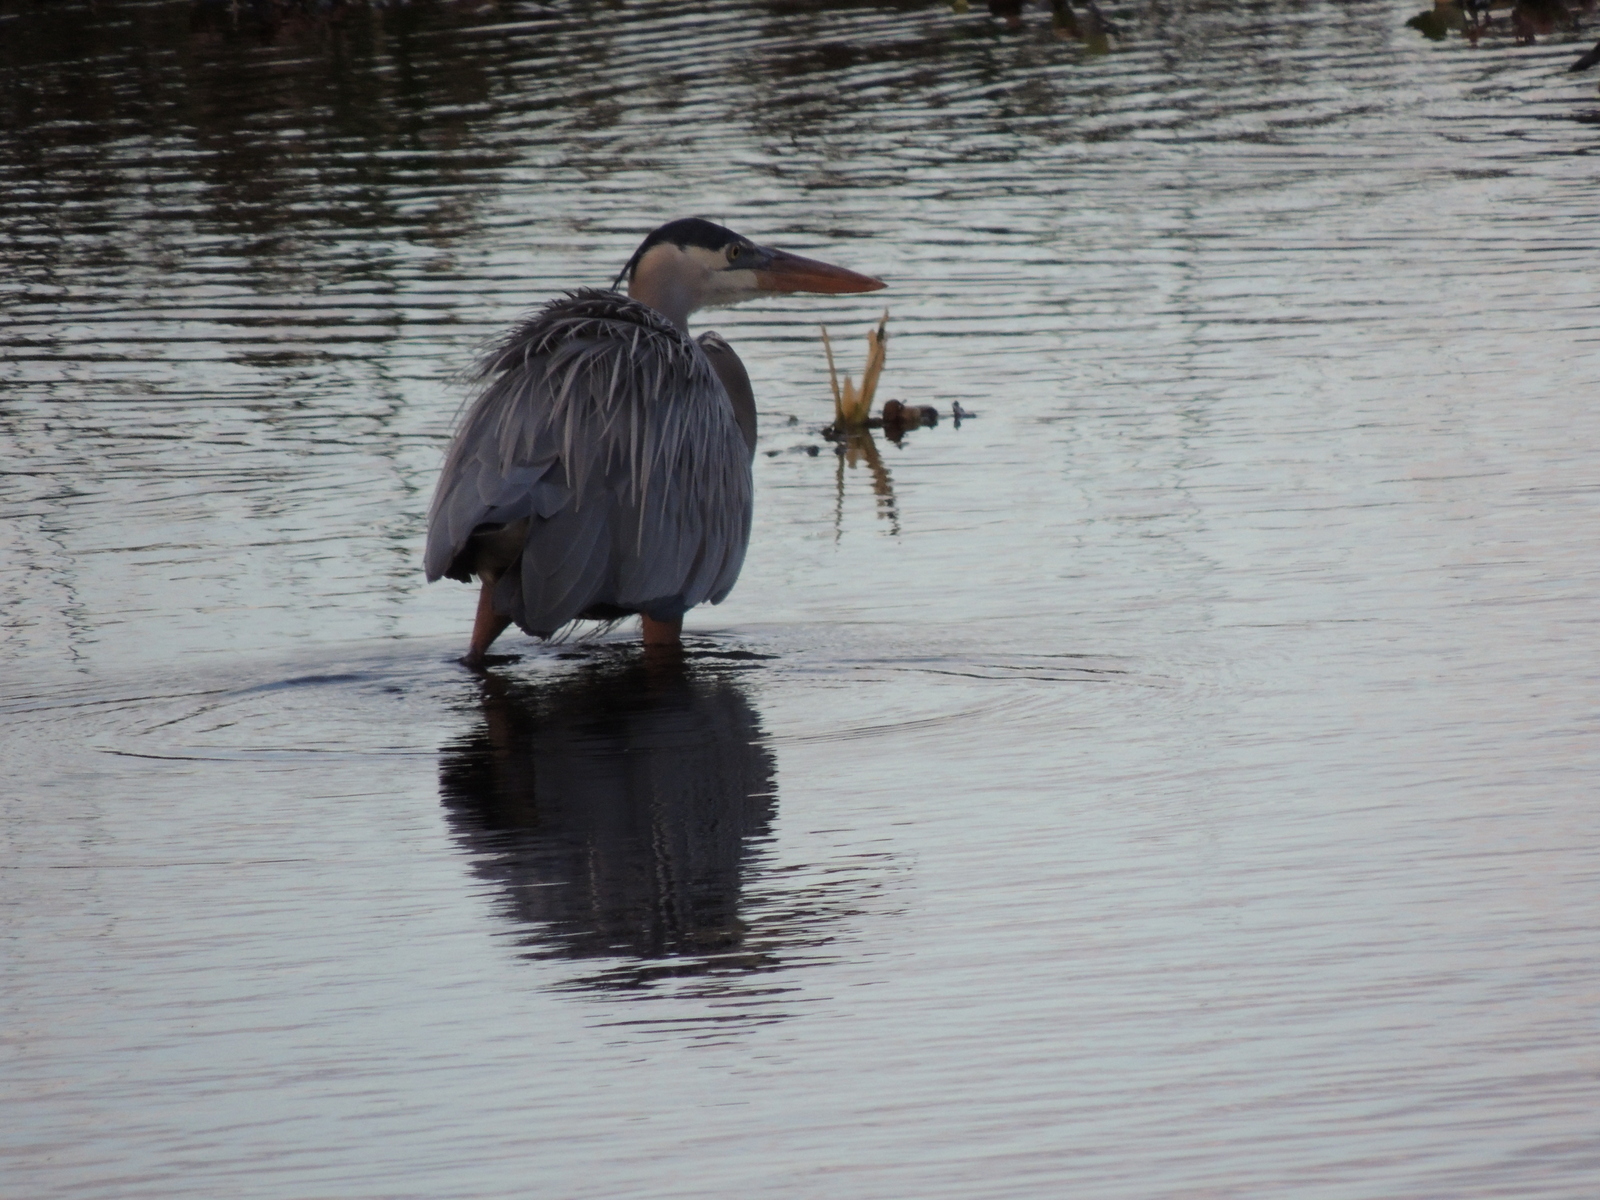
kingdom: Animalia
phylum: Chordata
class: Aves
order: Pelecaniformes
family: Ardeidae
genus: Ardea
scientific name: Ardea herodias
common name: Great blue heron
